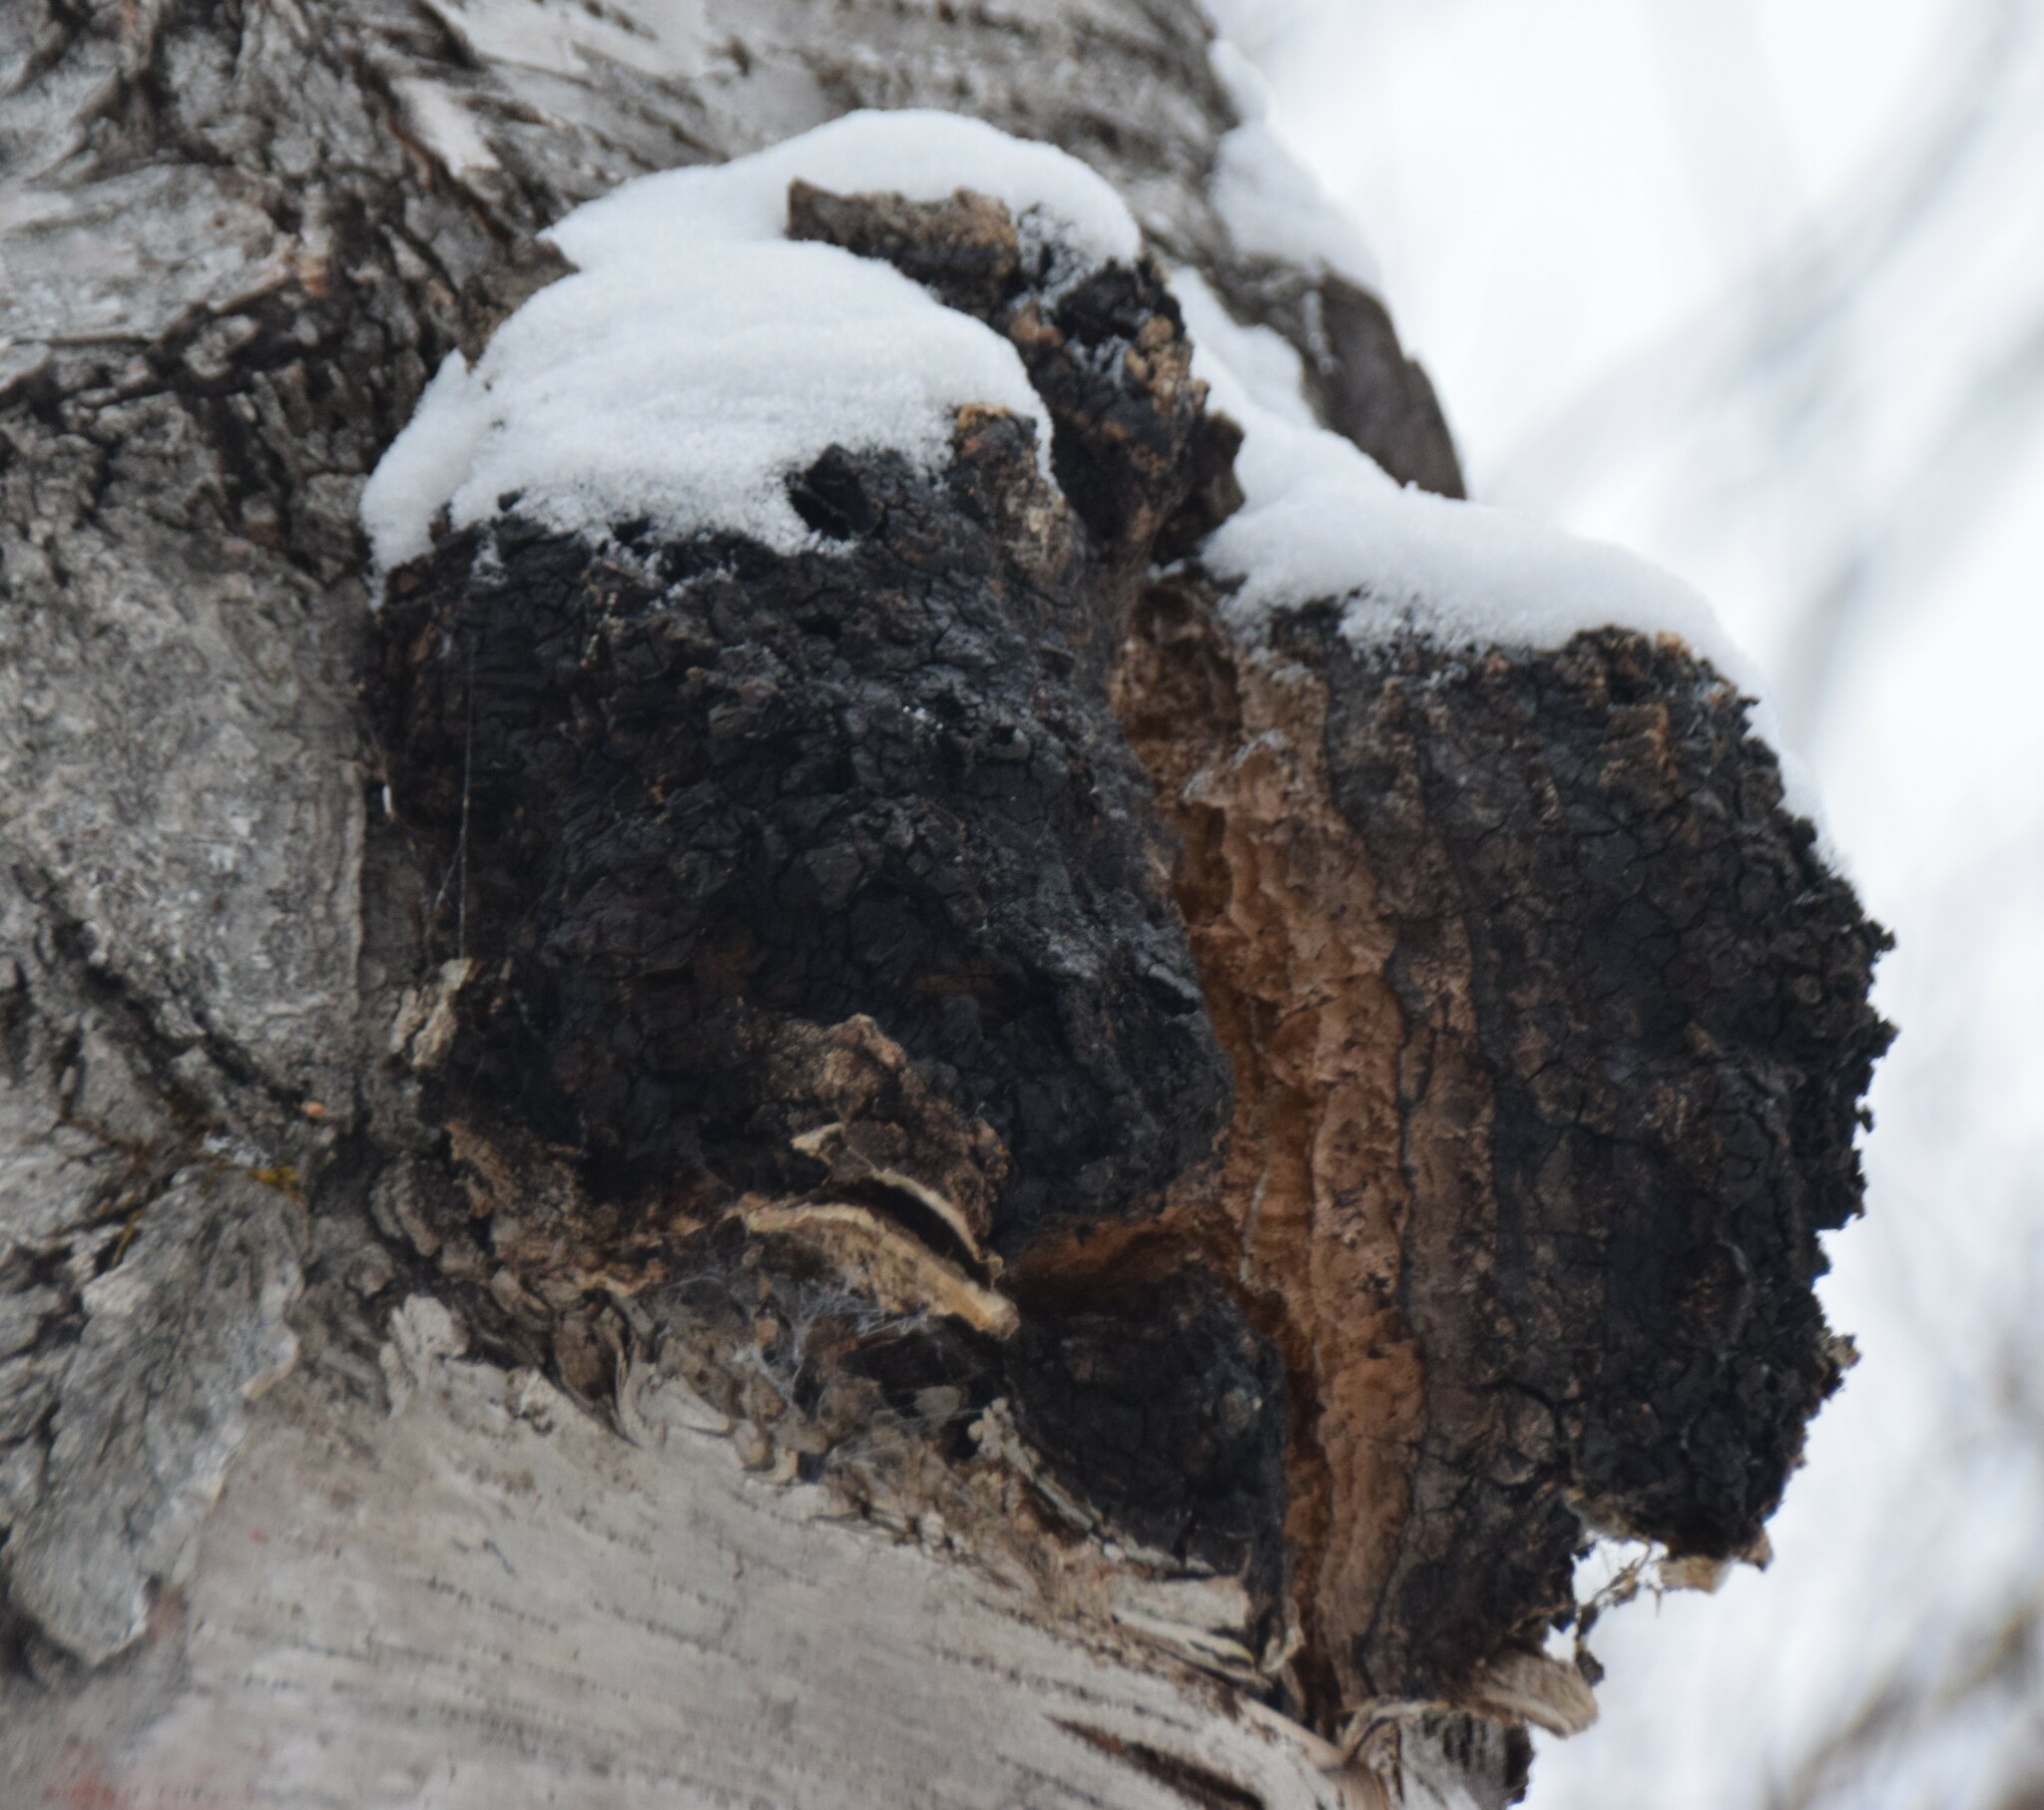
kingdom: Fungi
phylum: Basidiomycota
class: Agaricomycetes
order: Hymenochaetales
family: Hymenochaetaceae
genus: Inonotus
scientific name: Inonotus obliquus
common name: Chaga
